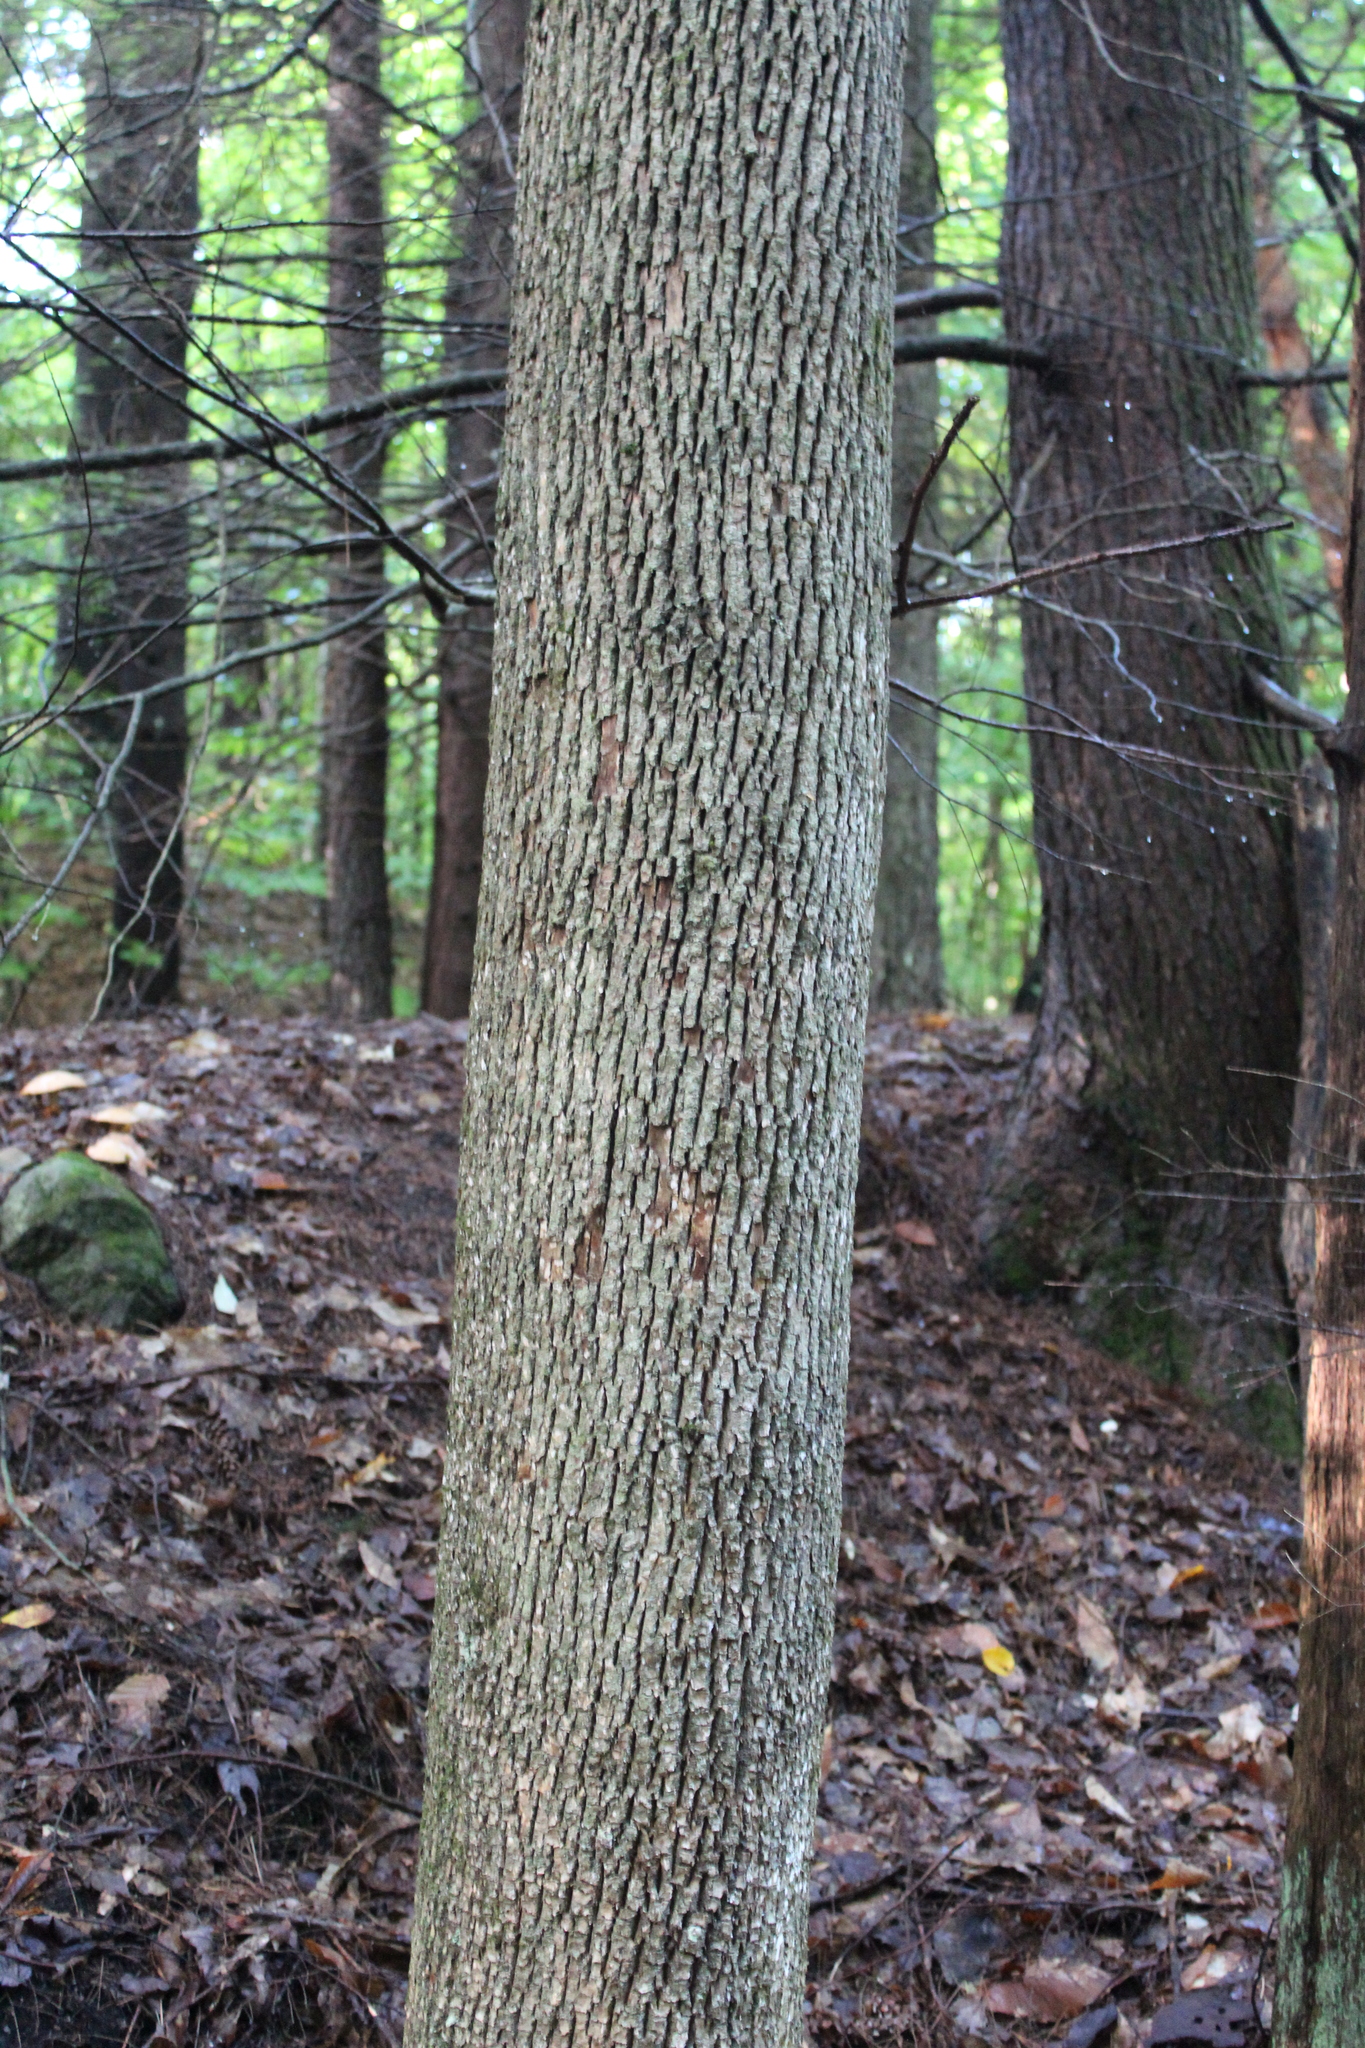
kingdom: Plantae
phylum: Tracheophyta
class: Magnoliopsida
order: Lamiales
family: Oleaceae
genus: Fraxinus
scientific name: Fraxinus americana
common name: White ash
